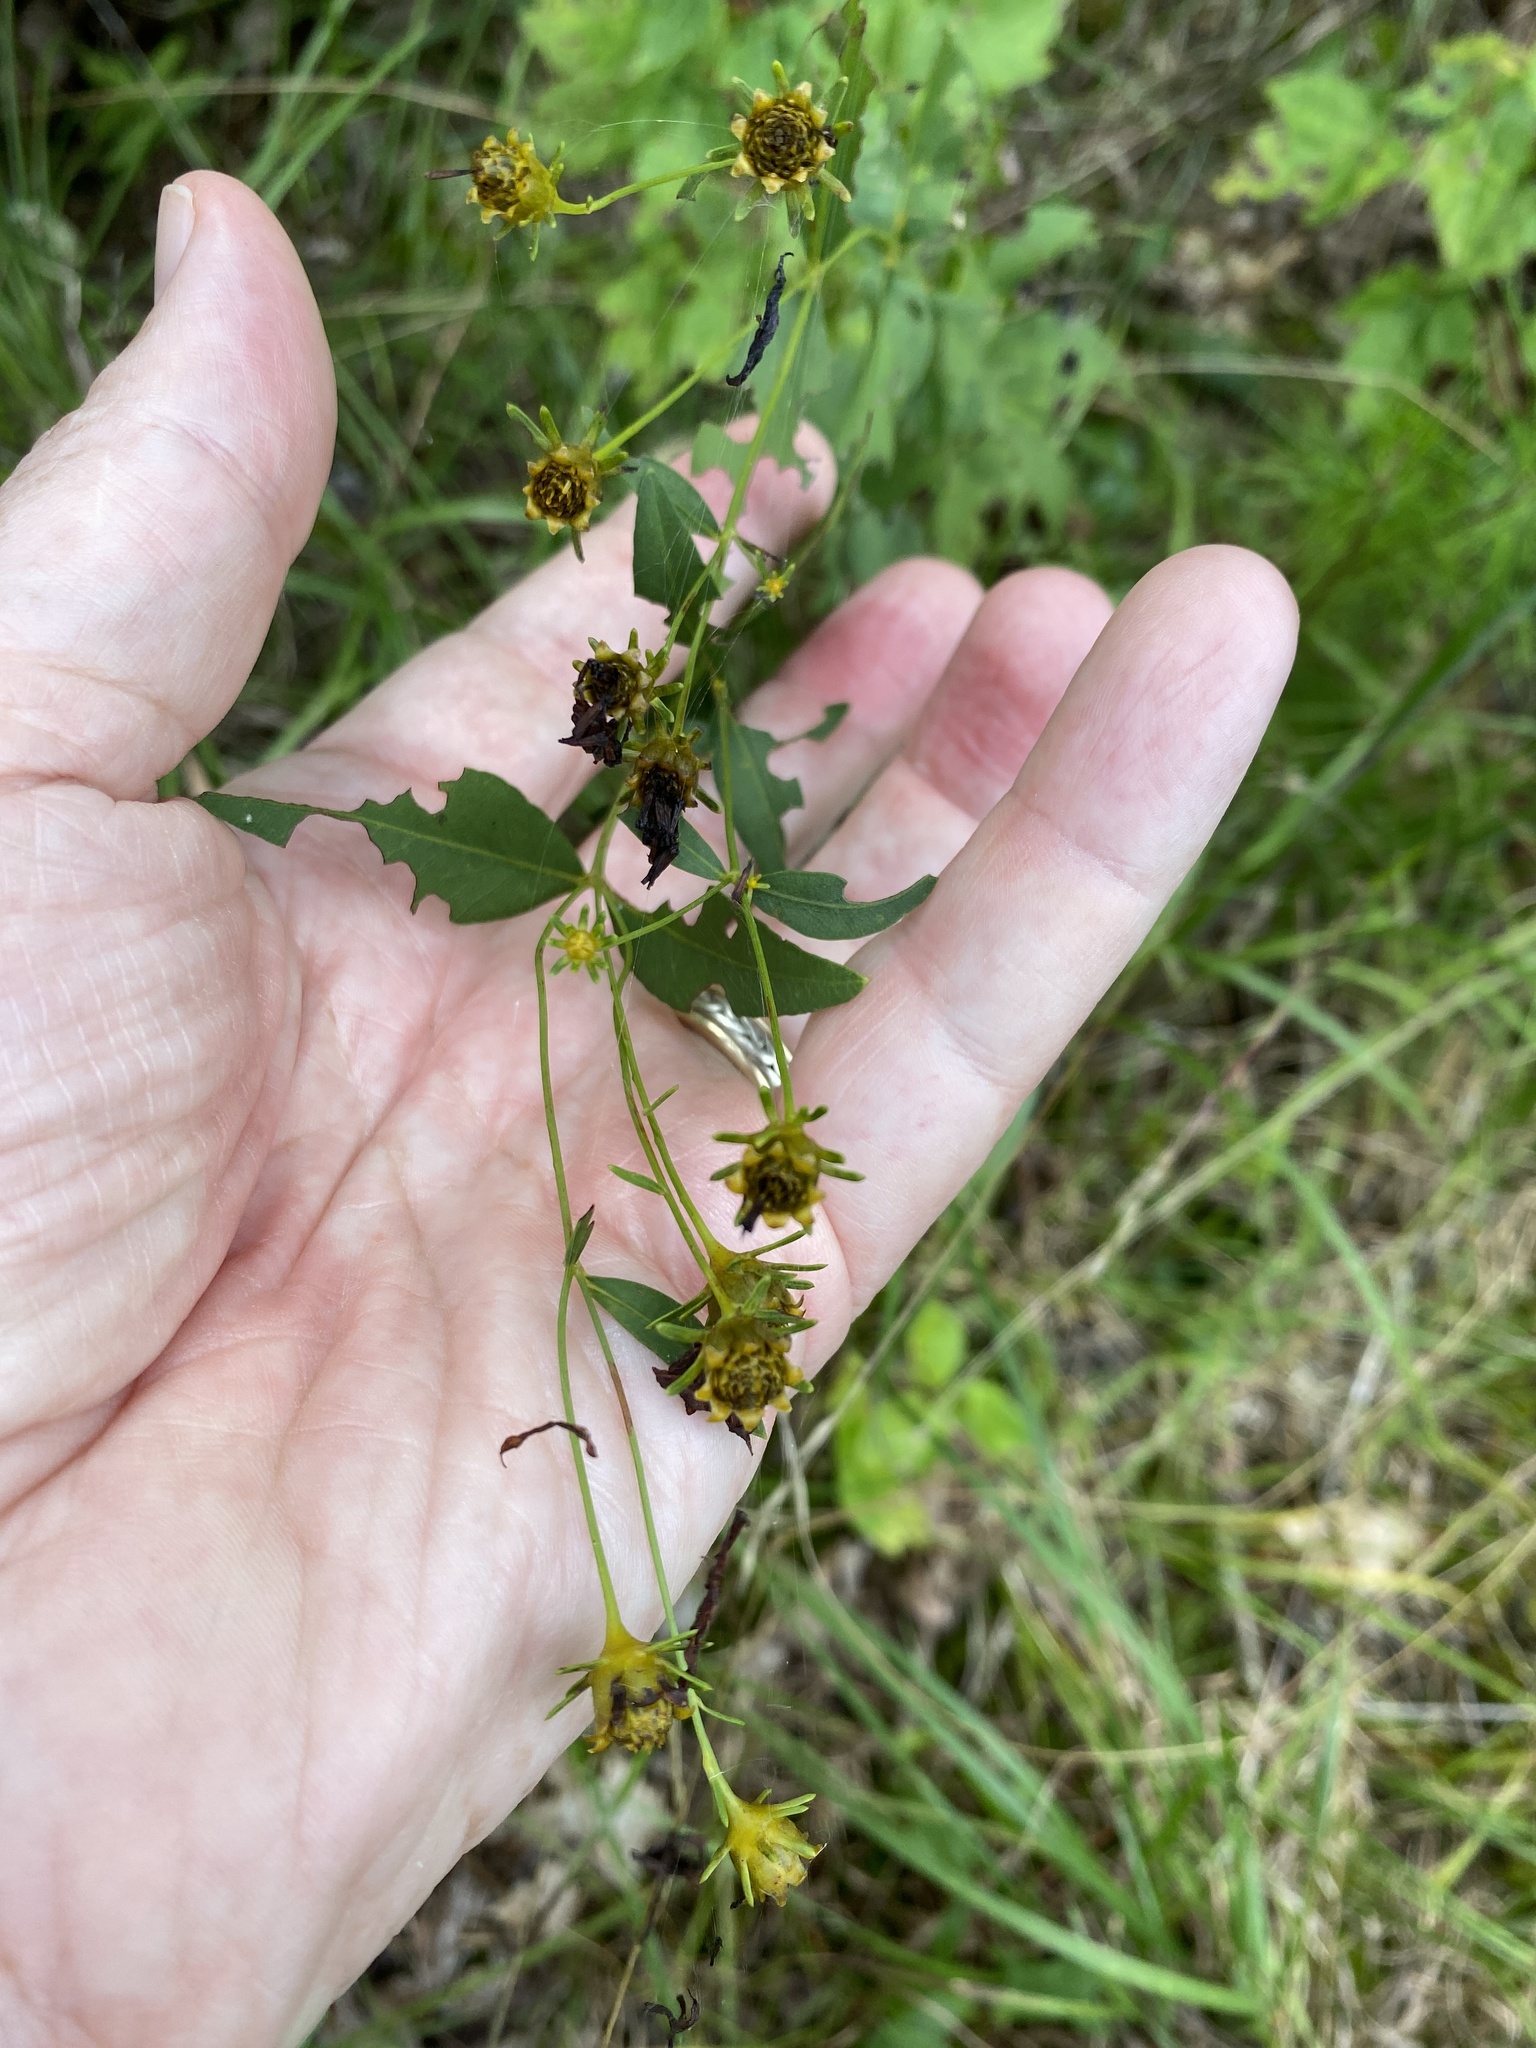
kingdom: Plantae
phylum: Tracheophyta
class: Magnoliopsida
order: Asterales
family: Asteraceae
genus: Coreopsis
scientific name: Coreopsis major
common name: Forest tickseed
